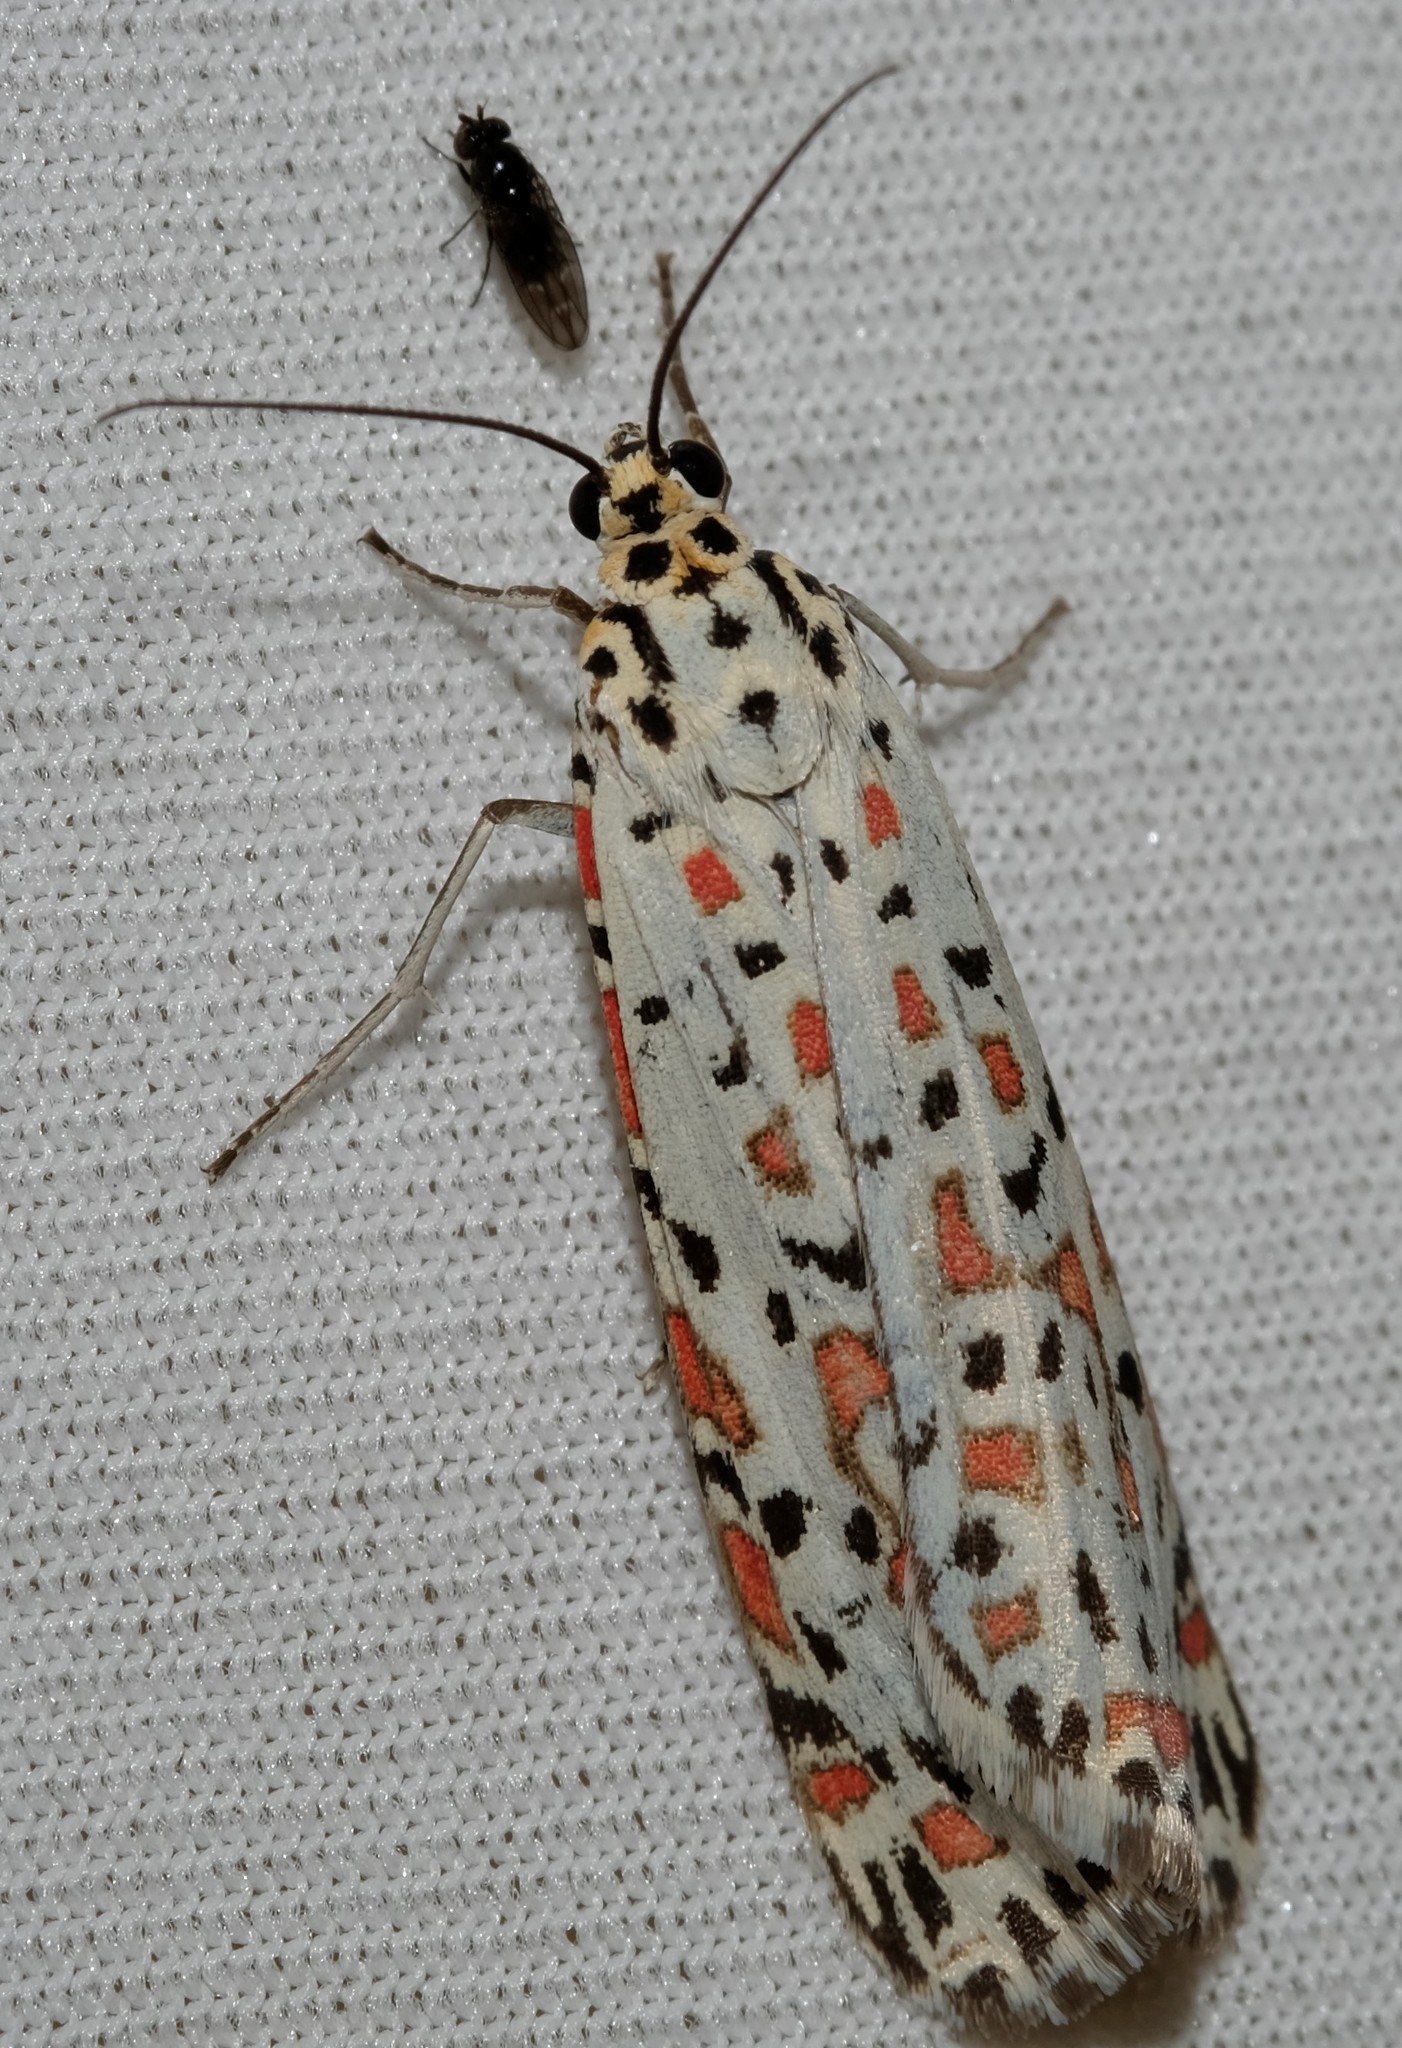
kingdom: Animalia
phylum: Arthropoda
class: Insecta
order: Lepidoptera
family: Erebidae
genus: Utetheisa
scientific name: Utetheisa pulchelloides
